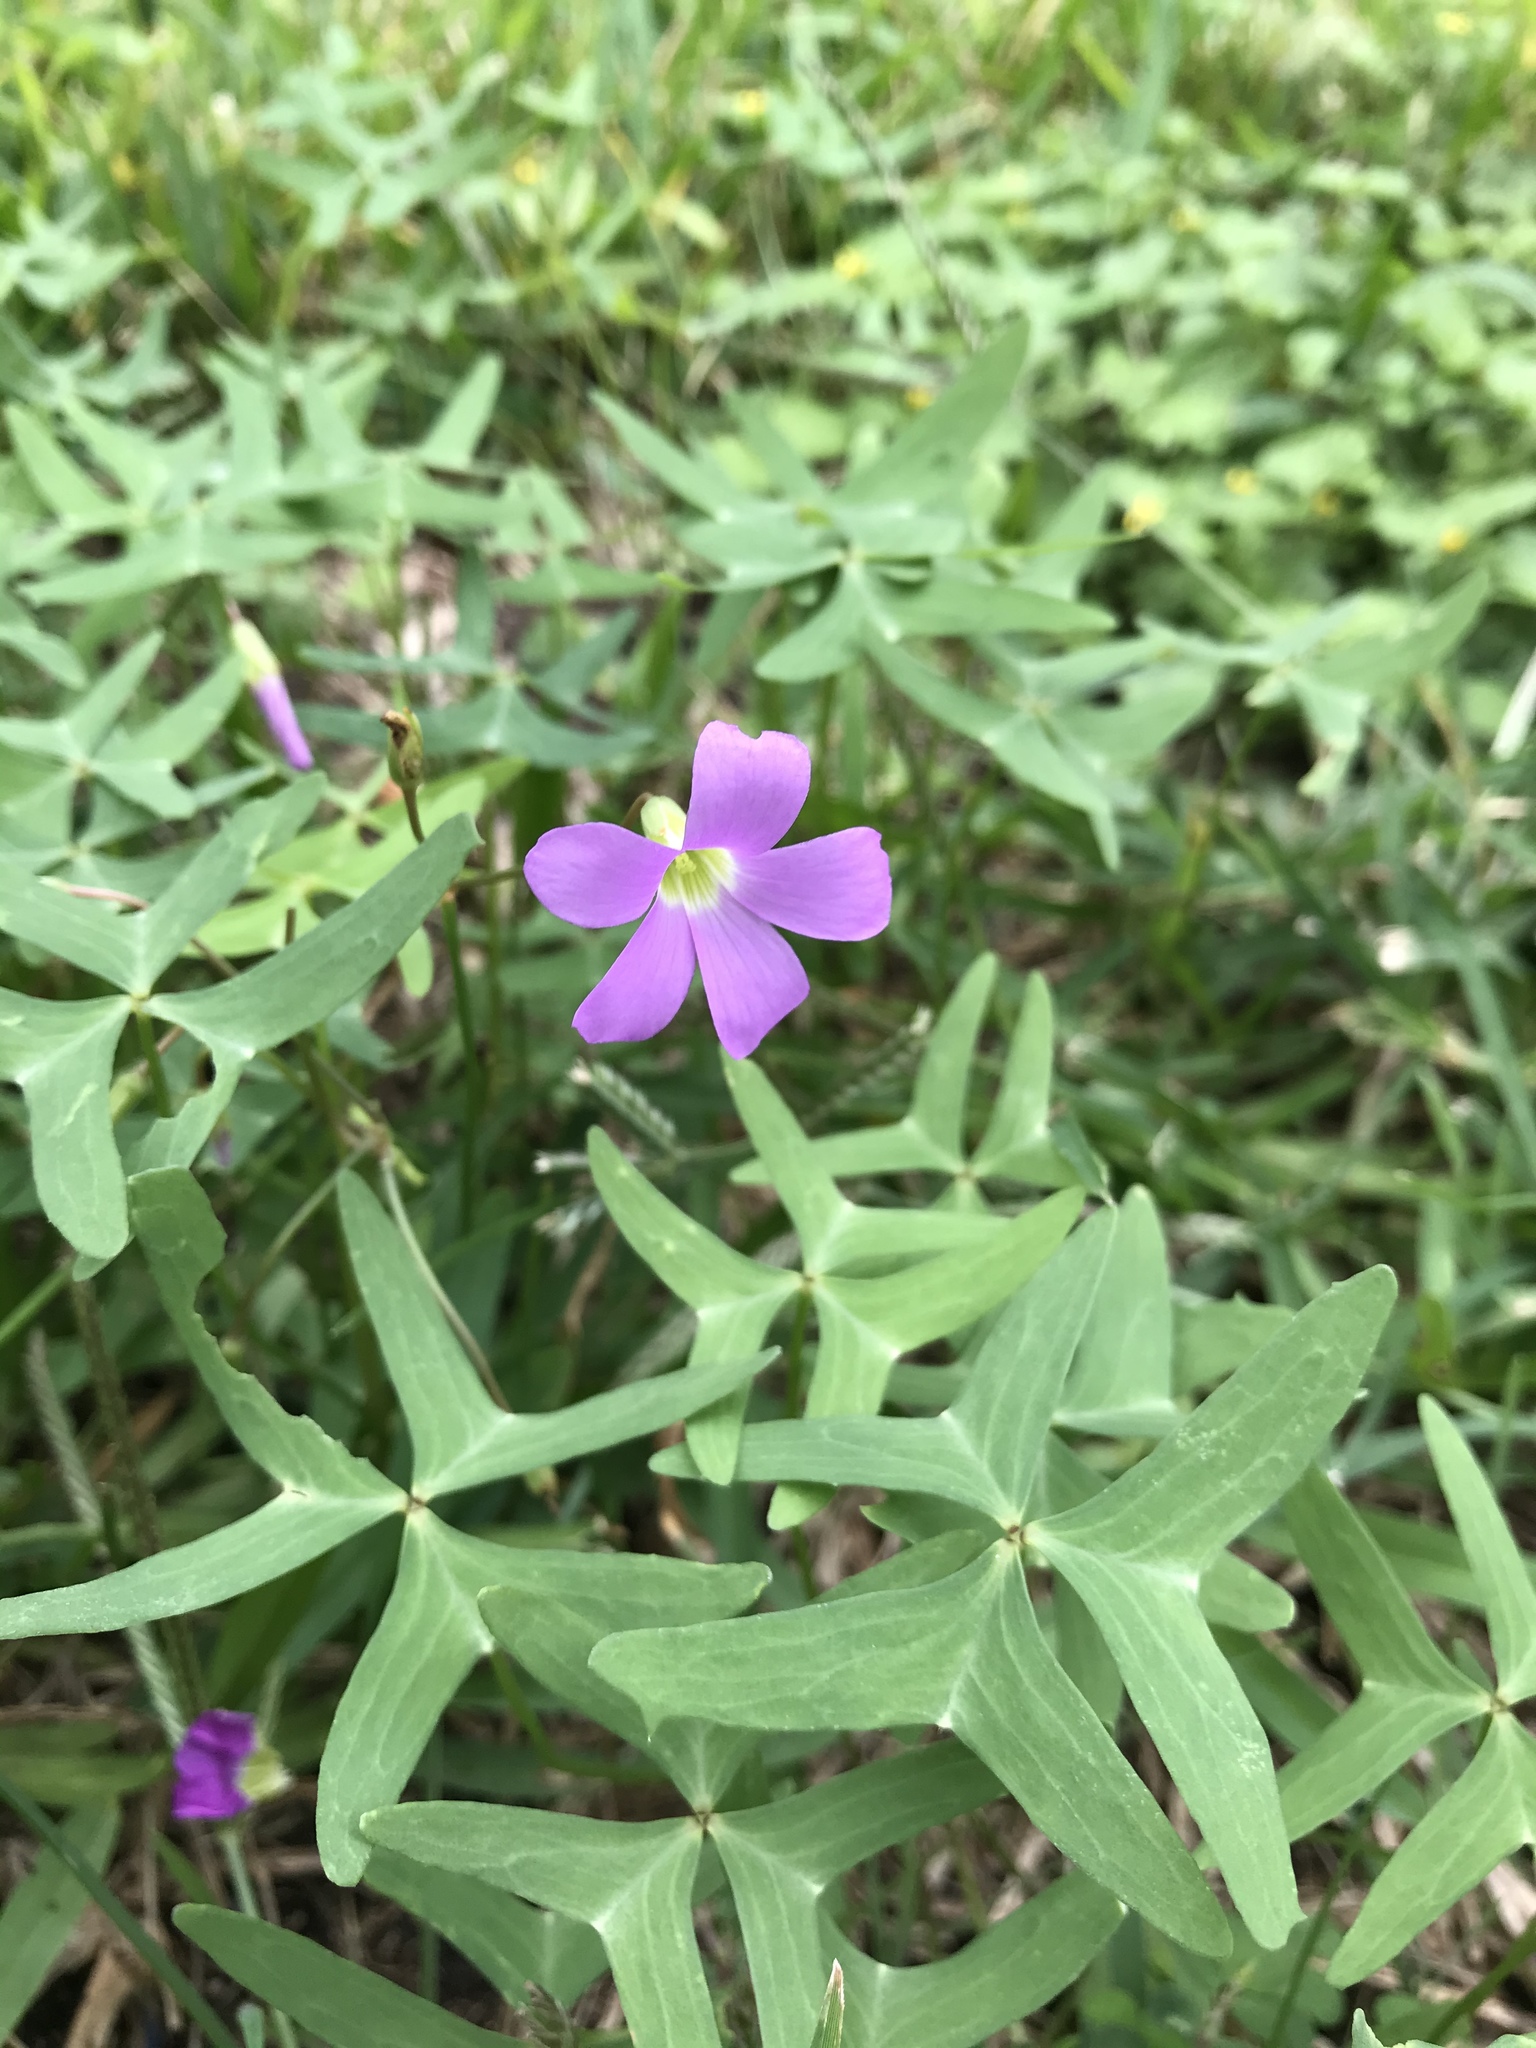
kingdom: Plantae
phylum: Tracheophyta
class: Magnoliopsida
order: Oxalidales
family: Oxalidaceae
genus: Oxalis
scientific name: Oxalis drummondii
